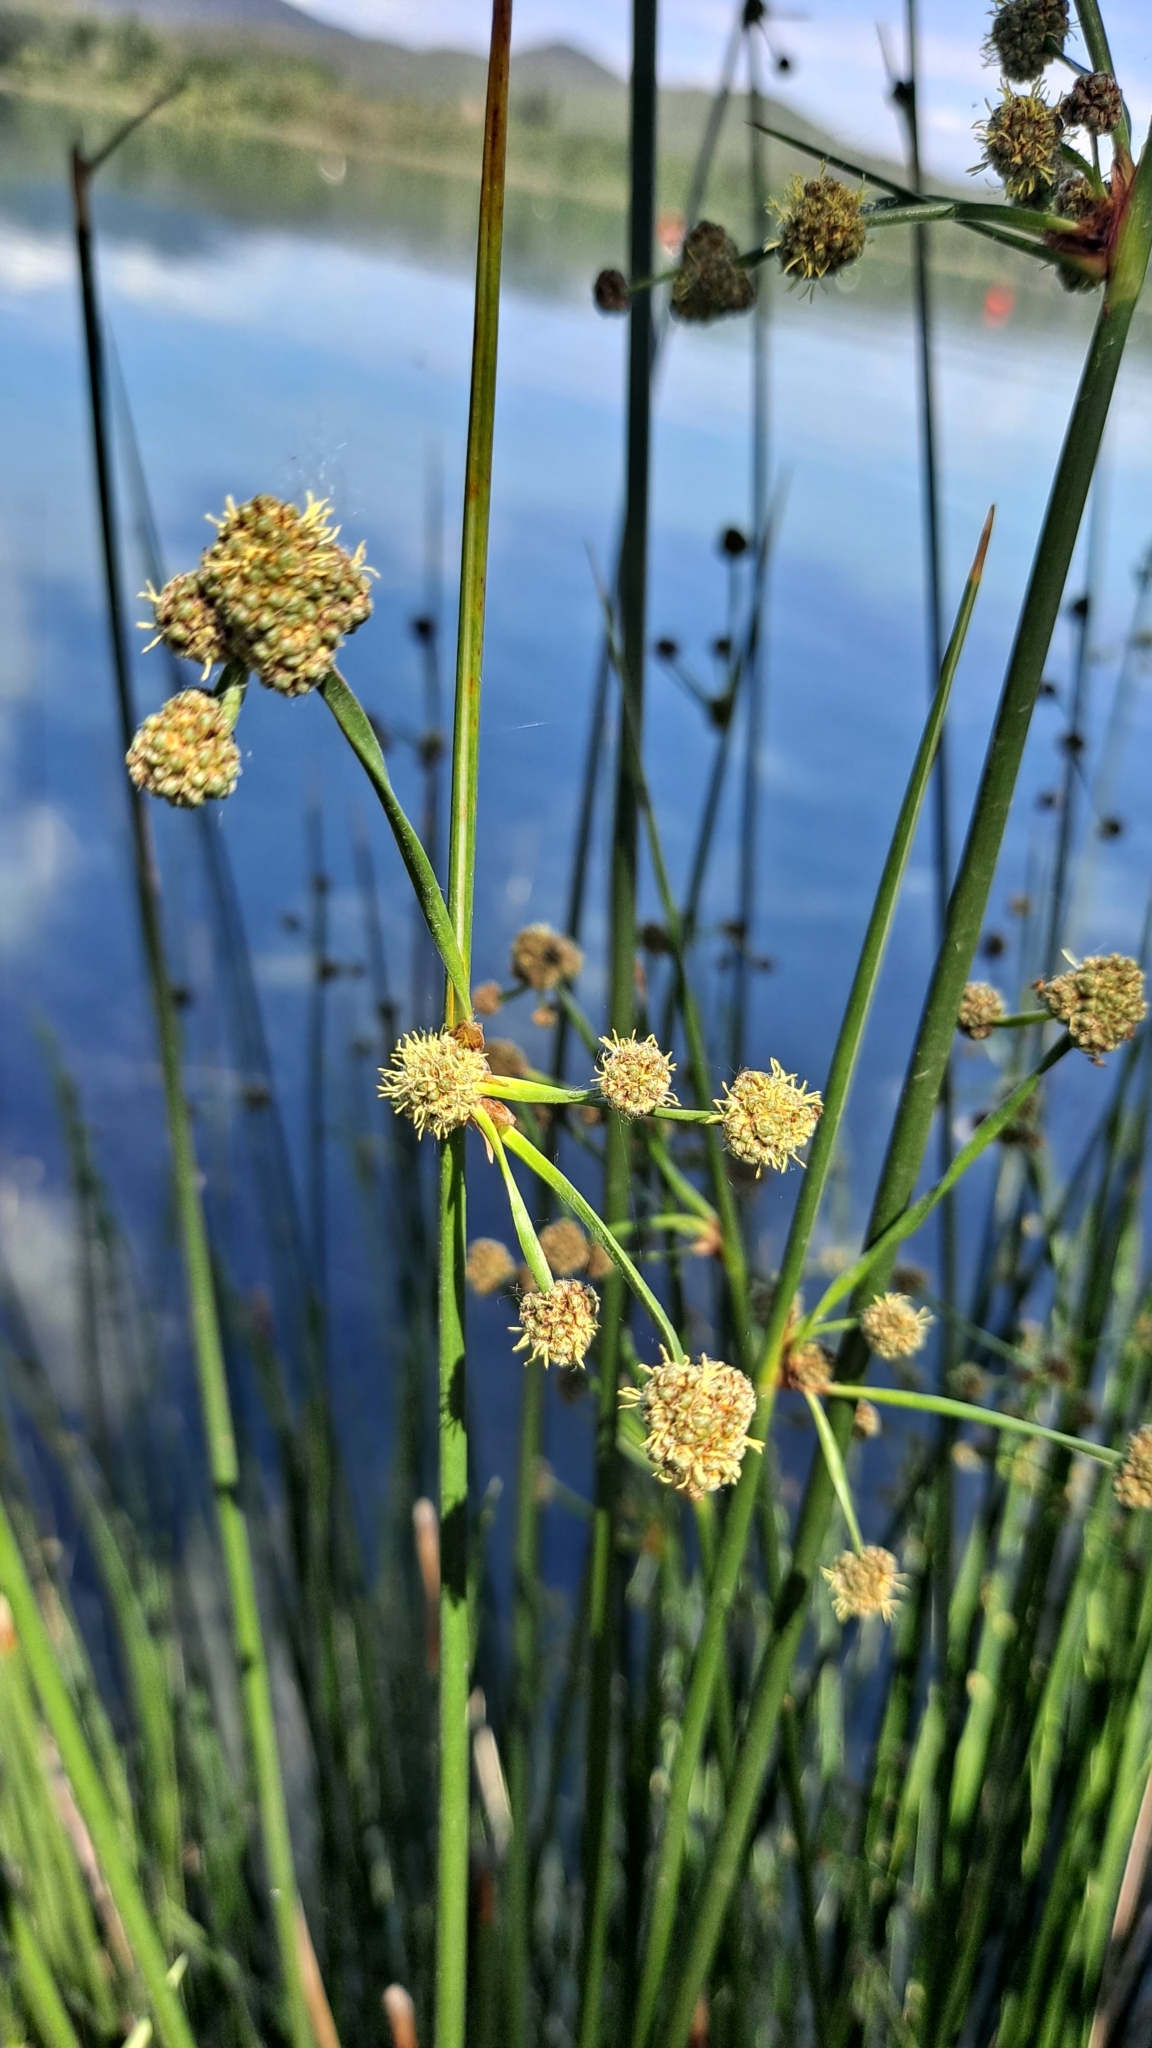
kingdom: Plantae
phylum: Tracheophyta
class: Liliopsida
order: Poales
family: Cyperaceae
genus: Scirpoides
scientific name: Scirpoides holoschoenus
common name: Round-headed club-rush
